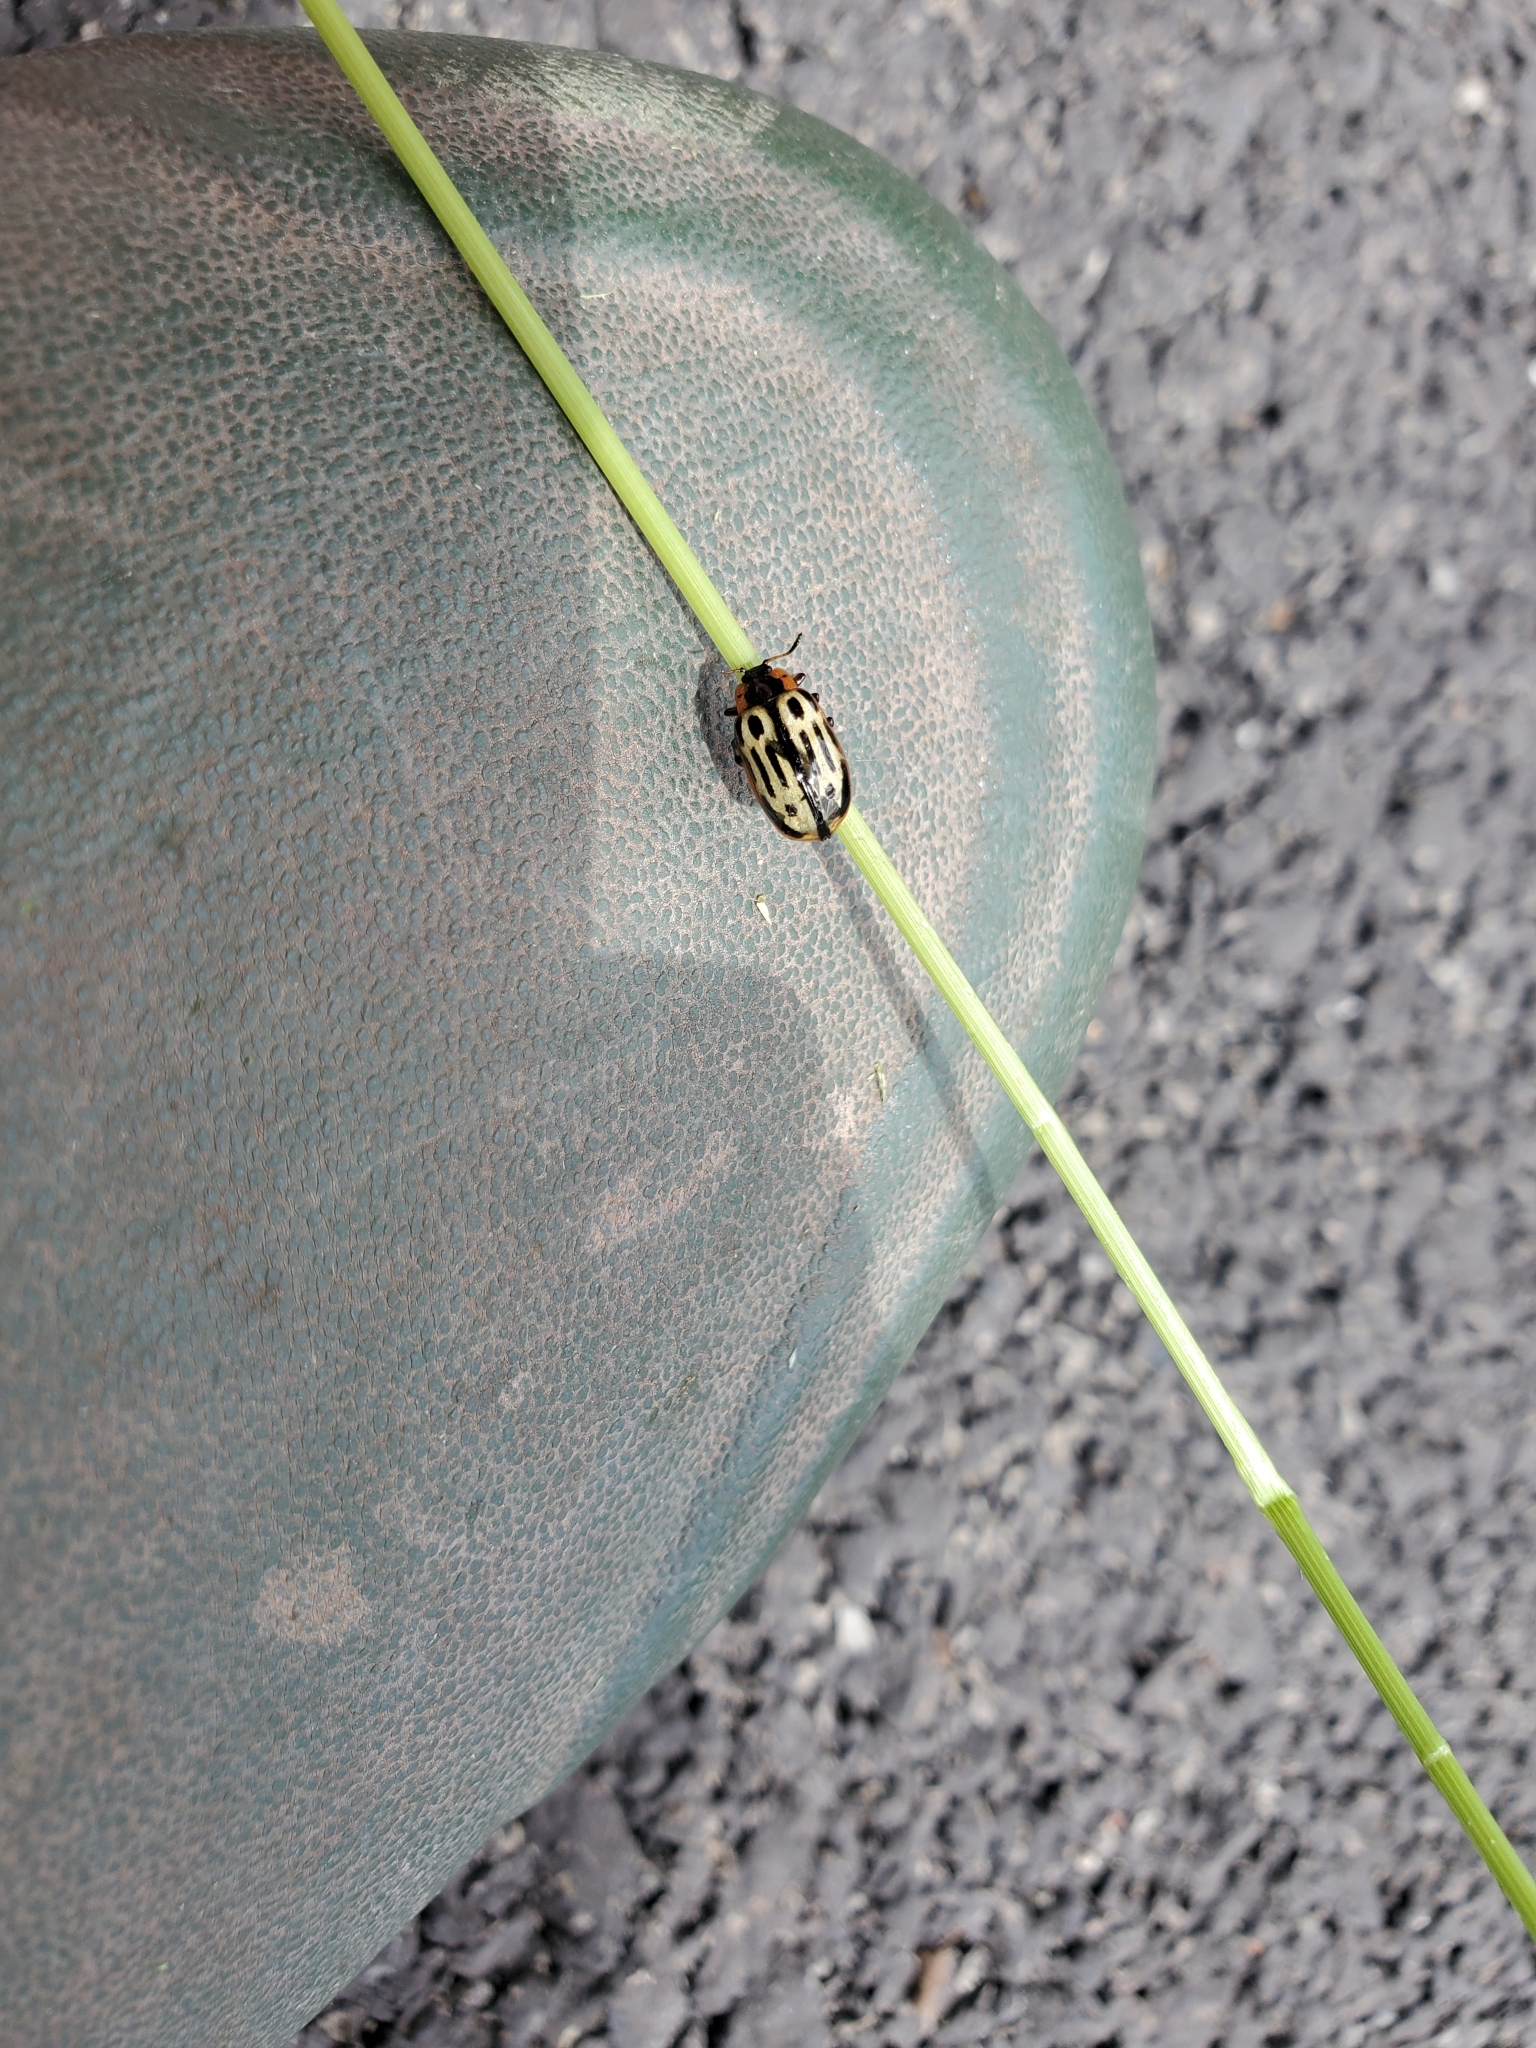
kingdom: Animalia
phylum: Arthropoda
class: Insecta
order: Coleoptera
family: Chrysomelidae
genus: Aethiopocassis
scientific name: Aethiopocassis scripta
